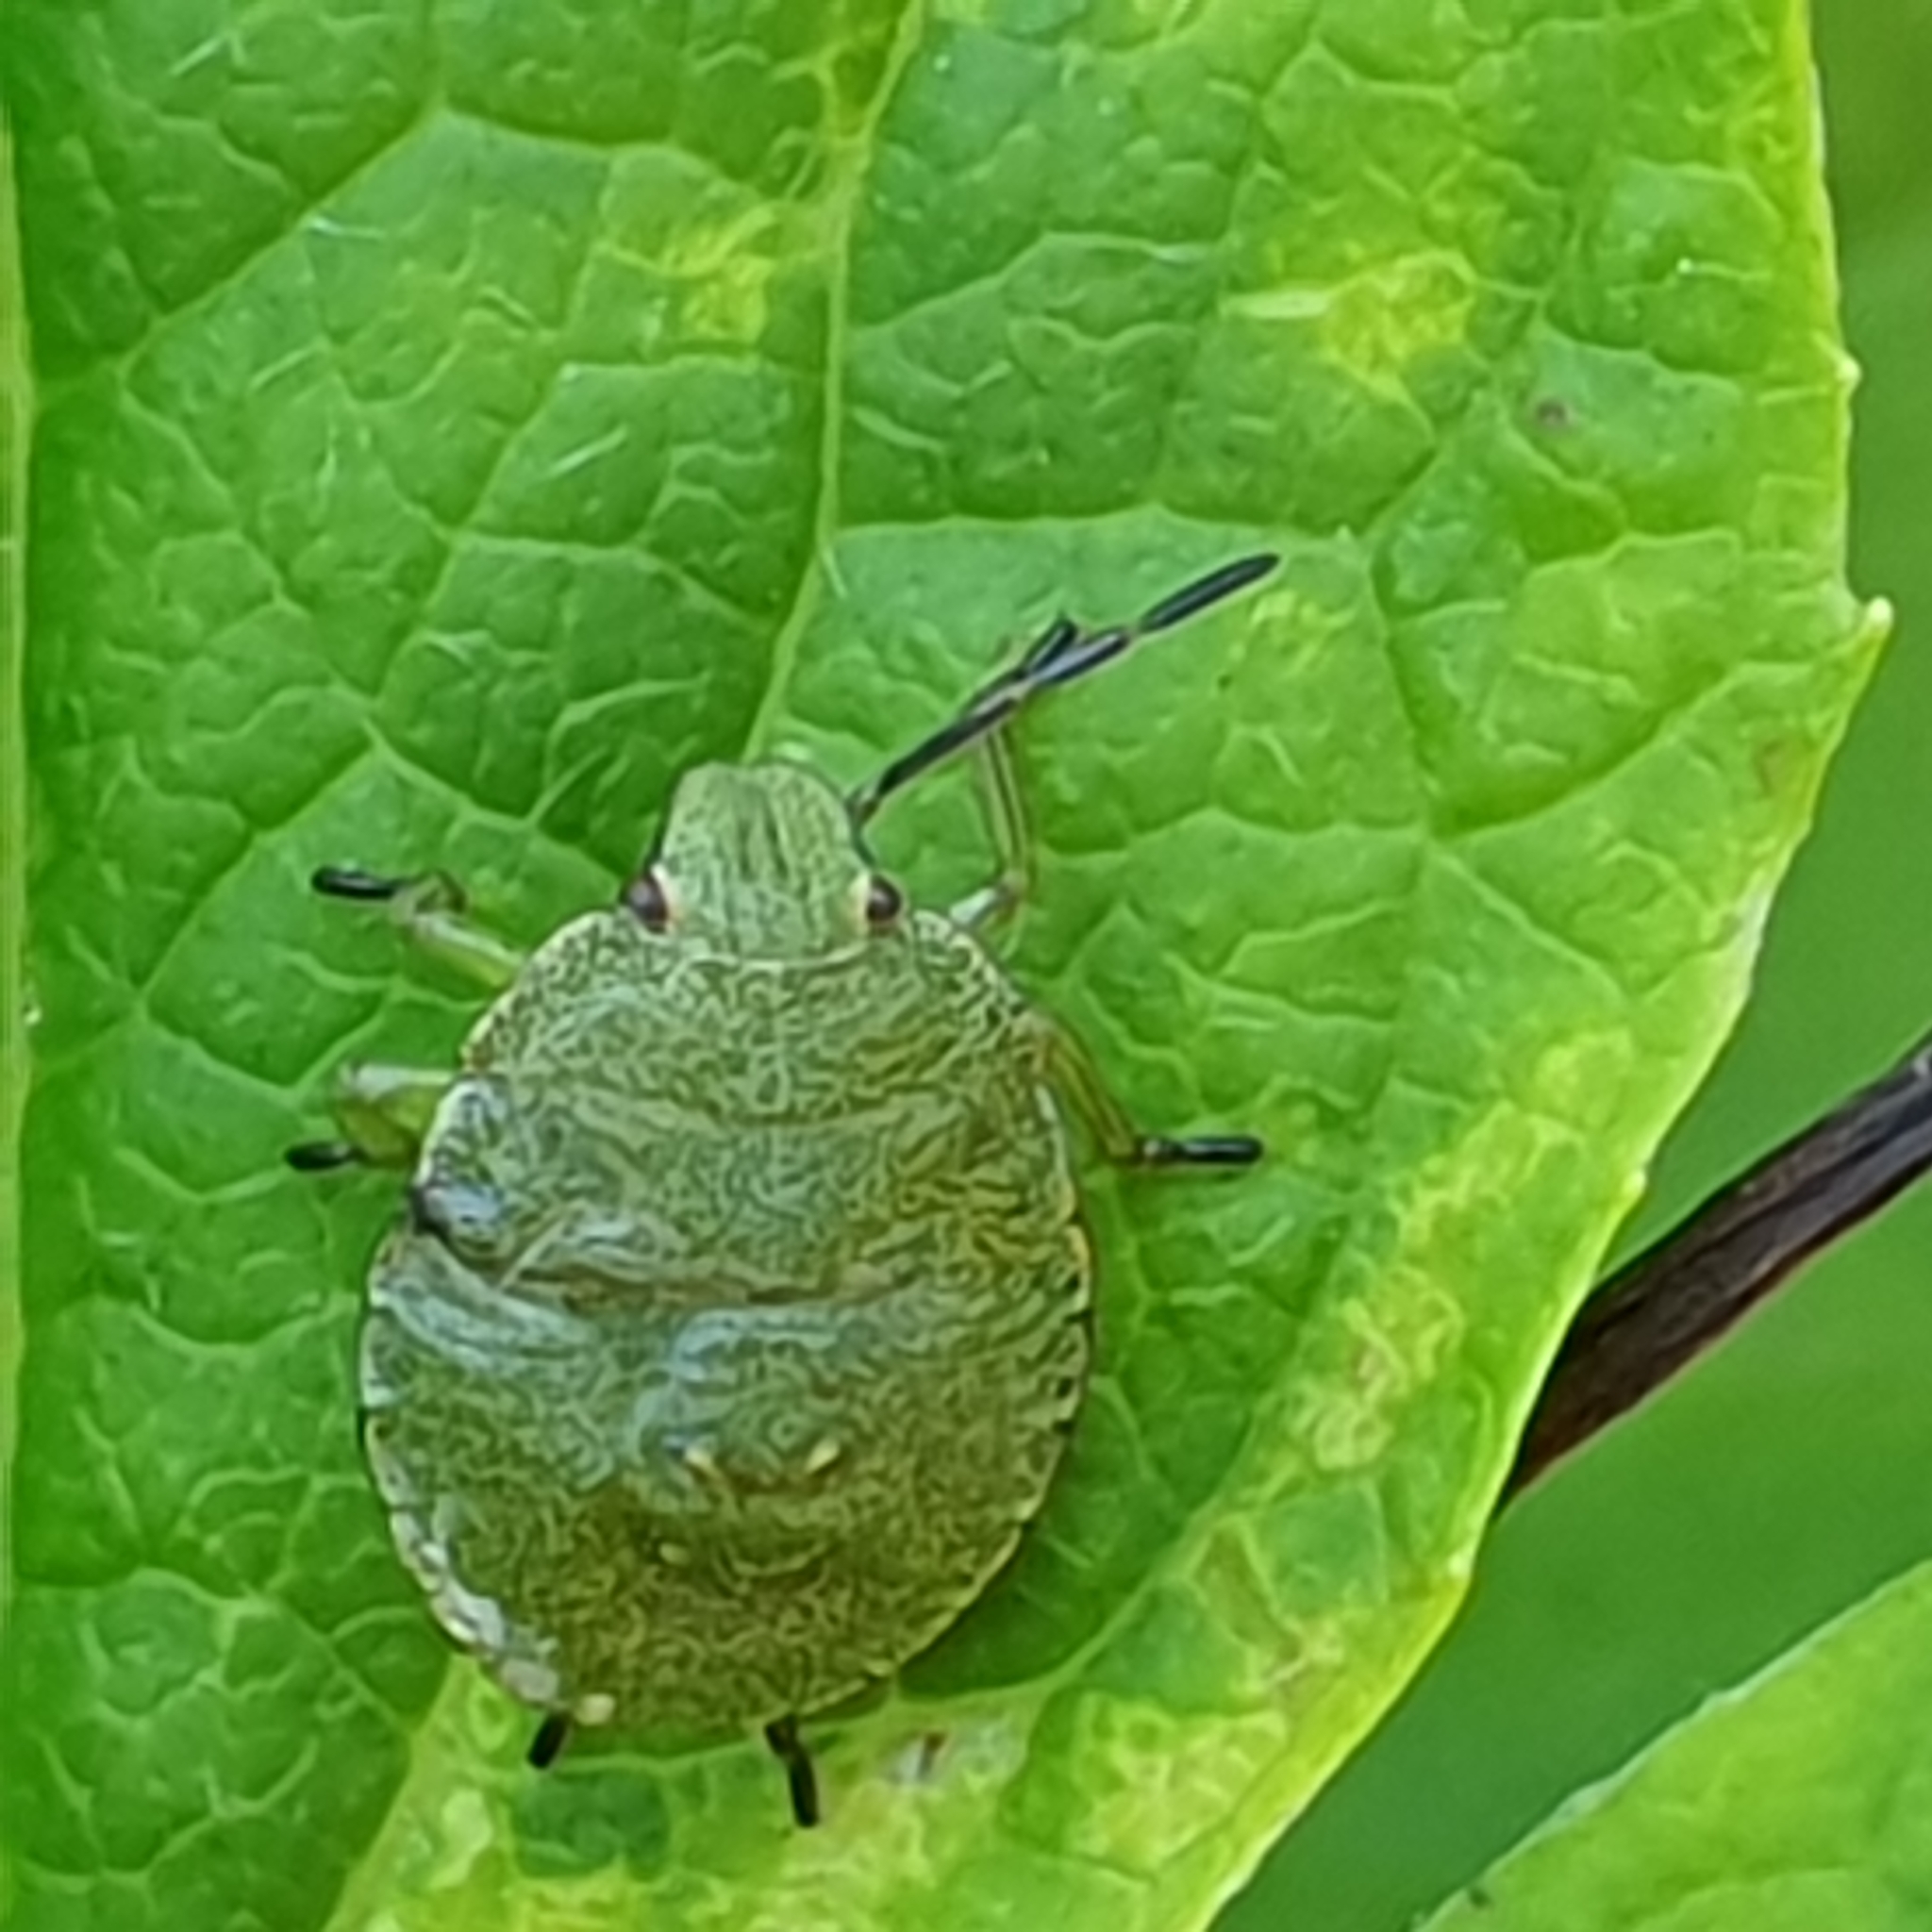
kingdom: Animalia
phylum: Arthropoda
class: Insecta
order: Hemiptera
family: Pentatomidae
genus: Palomena
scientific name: Palomena prasina
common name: Green shieldbug
